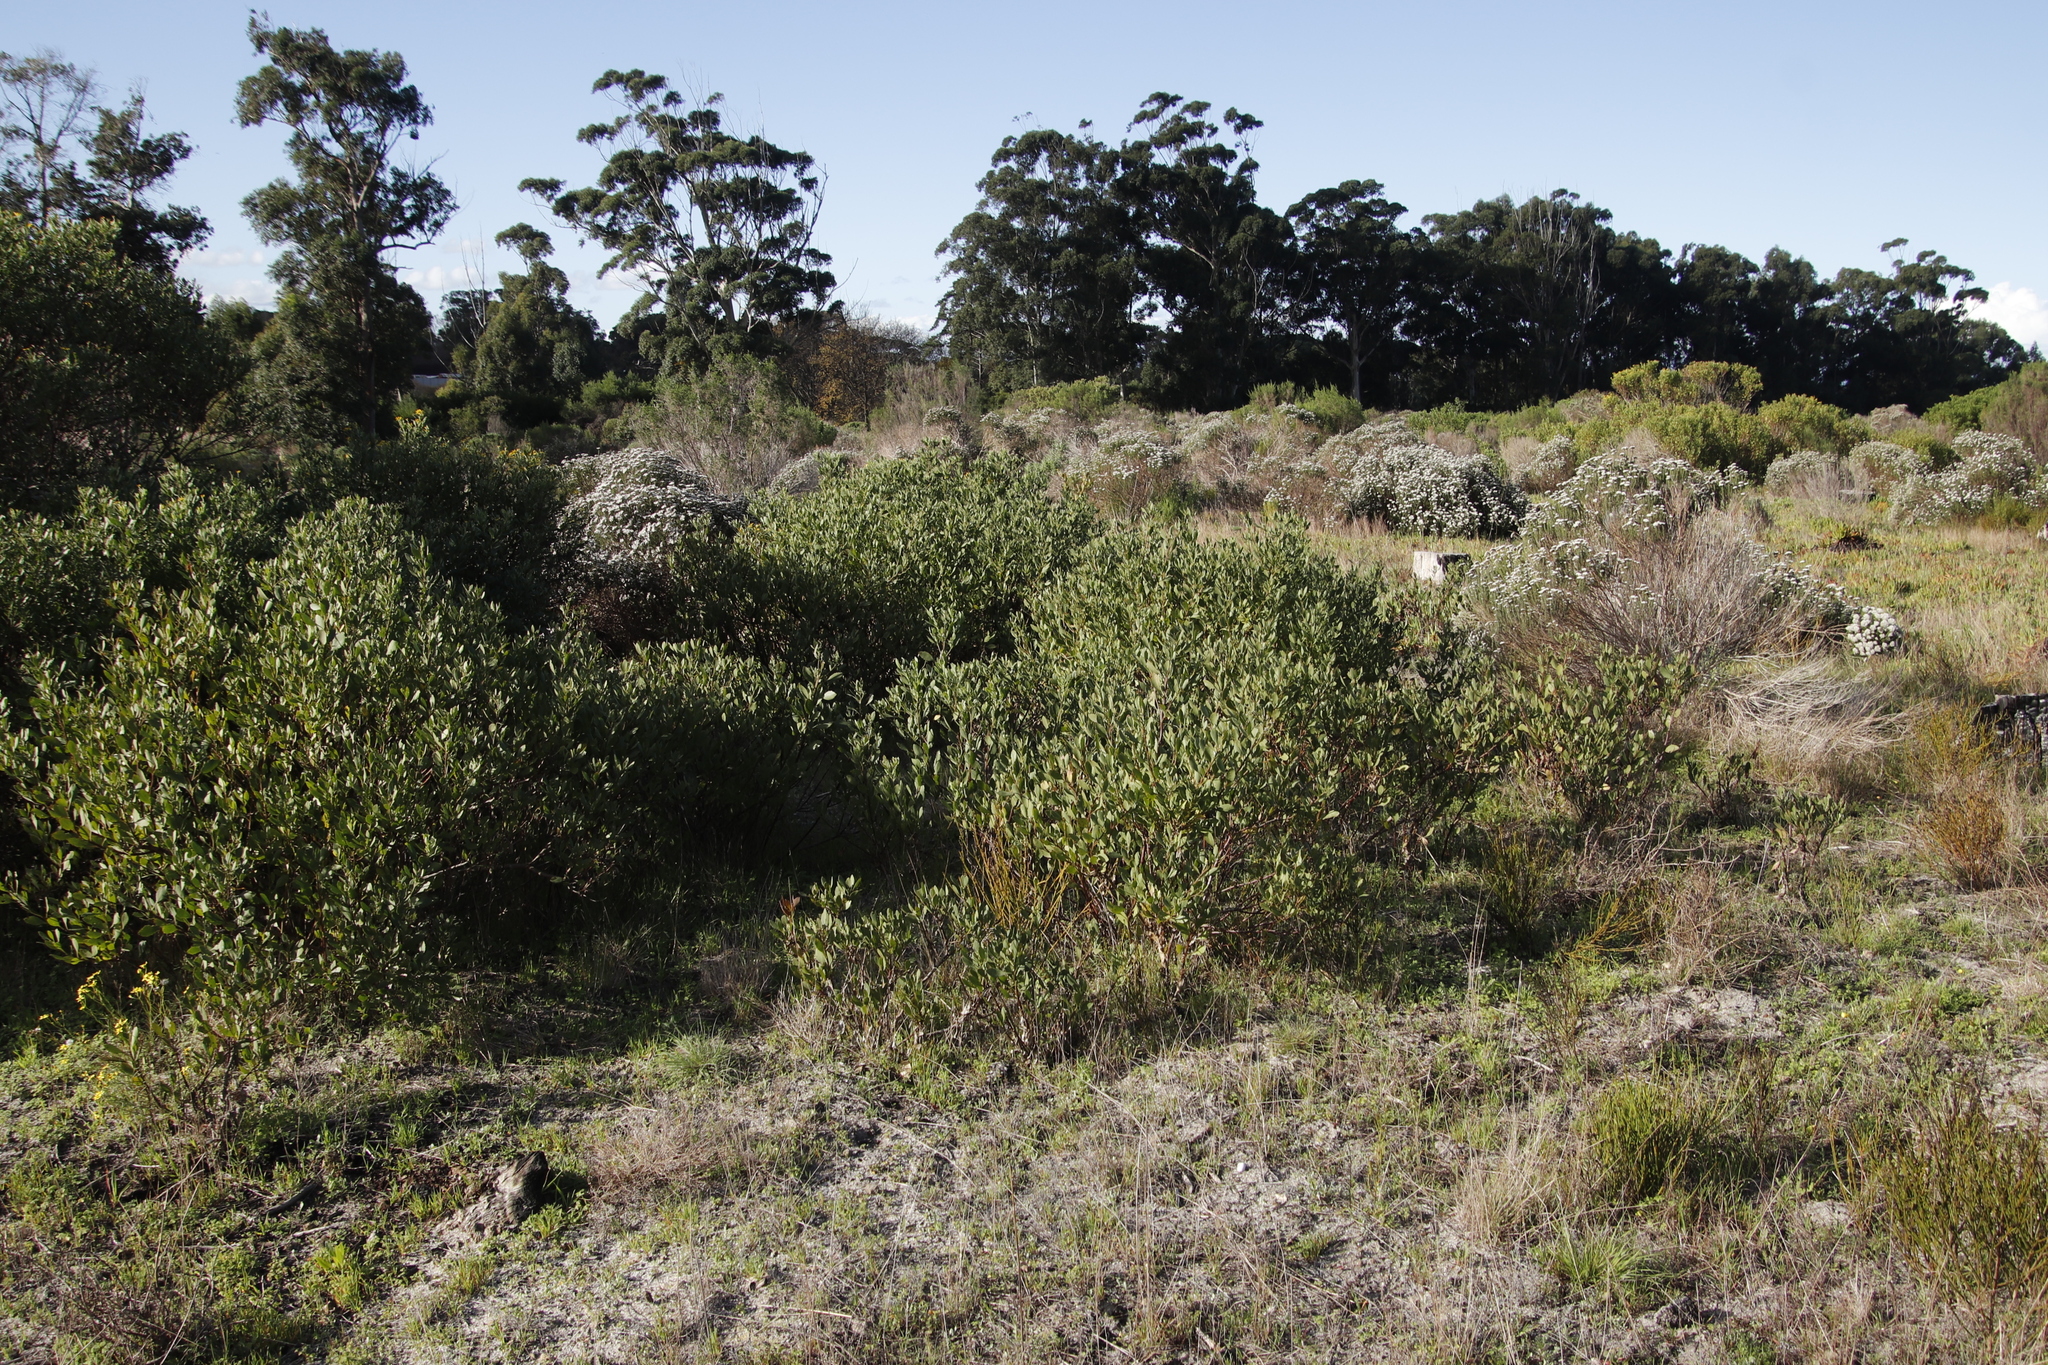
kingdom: Plantae
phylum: Tracheophyta
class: Magnoliopsida
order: Asterales
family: Asteraceae
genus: Osteospermum
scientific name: Osteospermum moniliferum
